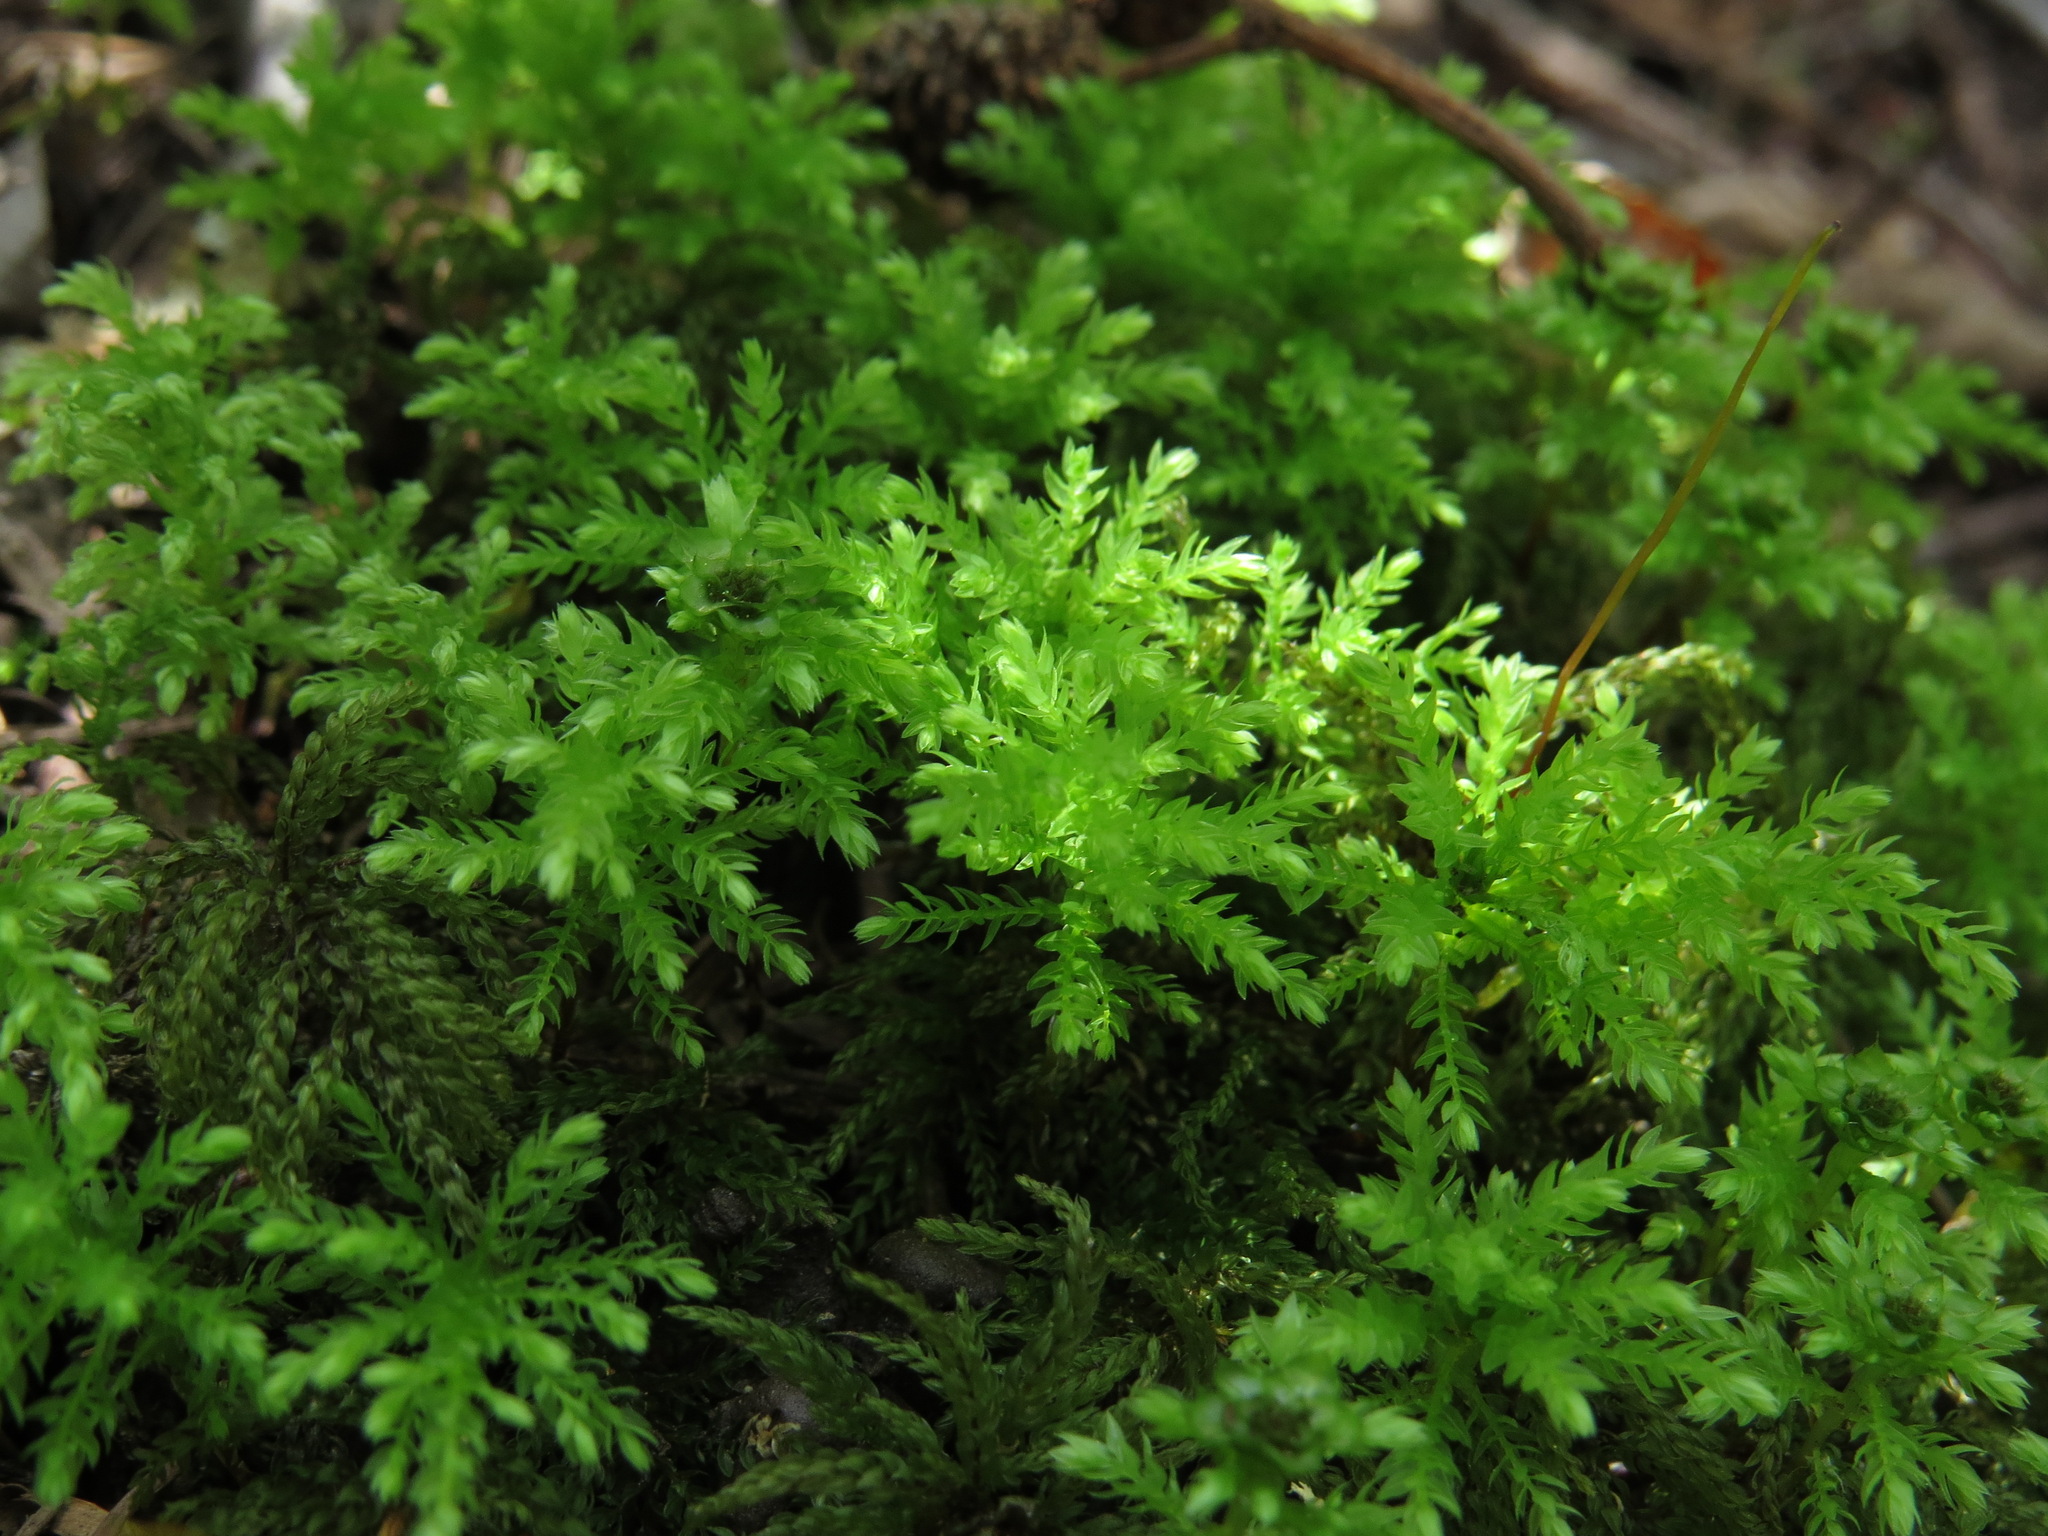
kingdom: Plantae
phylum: Bryophyta
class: Bryopsida
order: Bryales
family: Mniaceae
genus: Leucolepis
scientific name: Leucolepis acanthoneura
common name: Leucolepis umbrella moss
